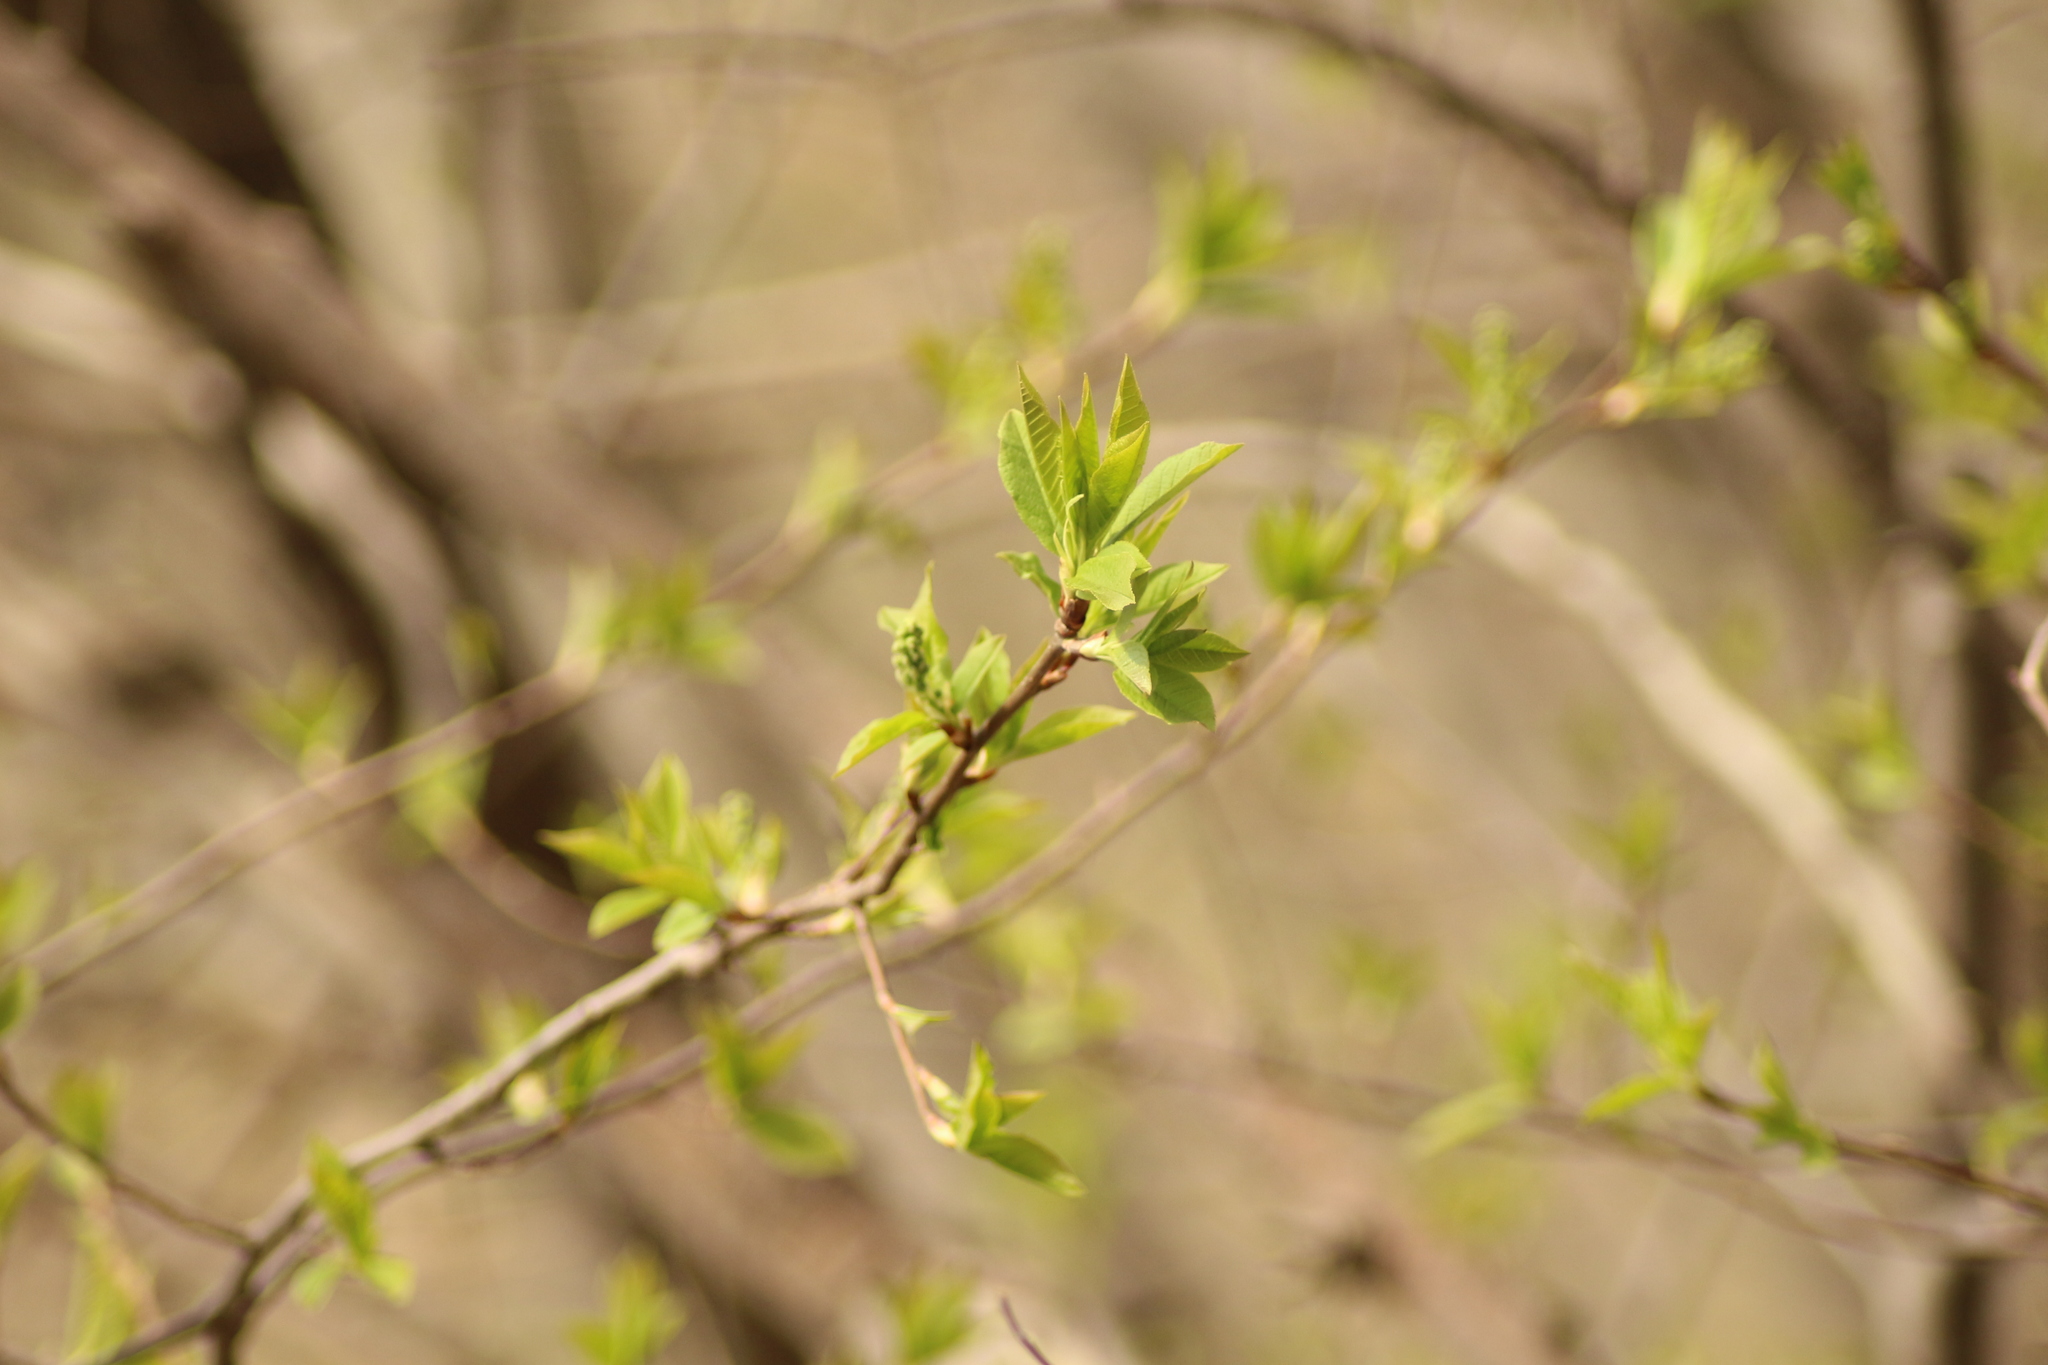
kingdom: Plantae
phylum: Tracheophyta
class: Magnoliopsida
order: Rosales
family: Rosaceae
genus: Prunus
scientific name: Prunus padus
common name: Bird cherry
